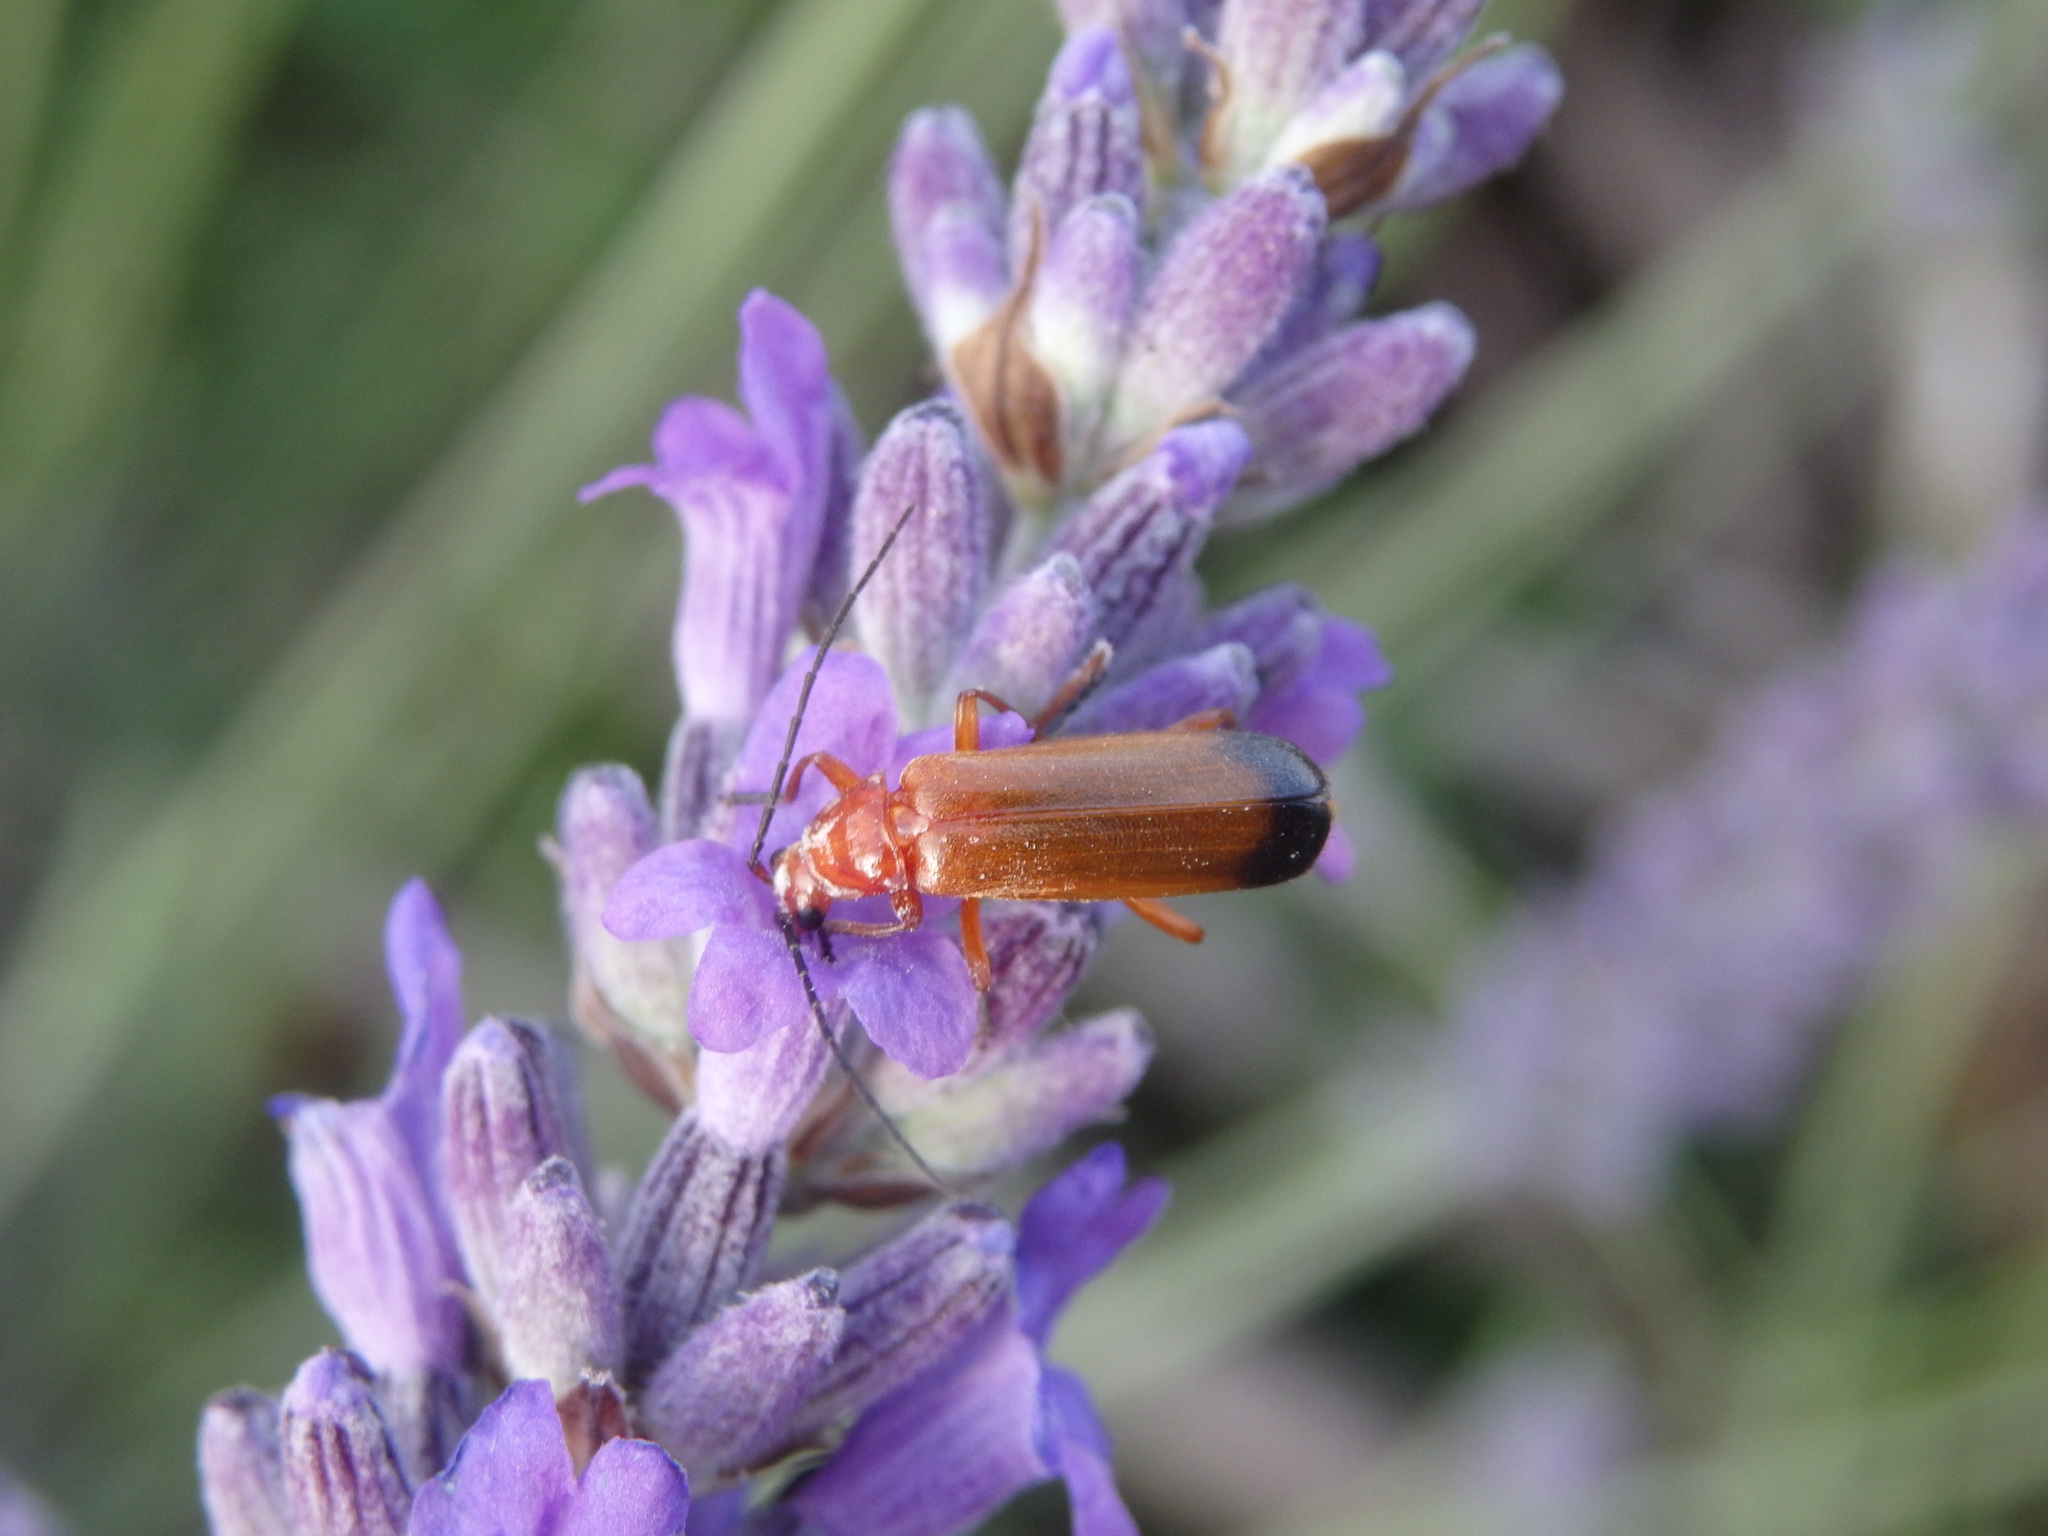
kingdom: Animalia
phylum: Arthropoda
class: Insecta
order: Coleoptera
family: Cantharidae
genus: Rhagonycha
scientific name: Rhagonycha fulva
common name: Common red soldier beetle
